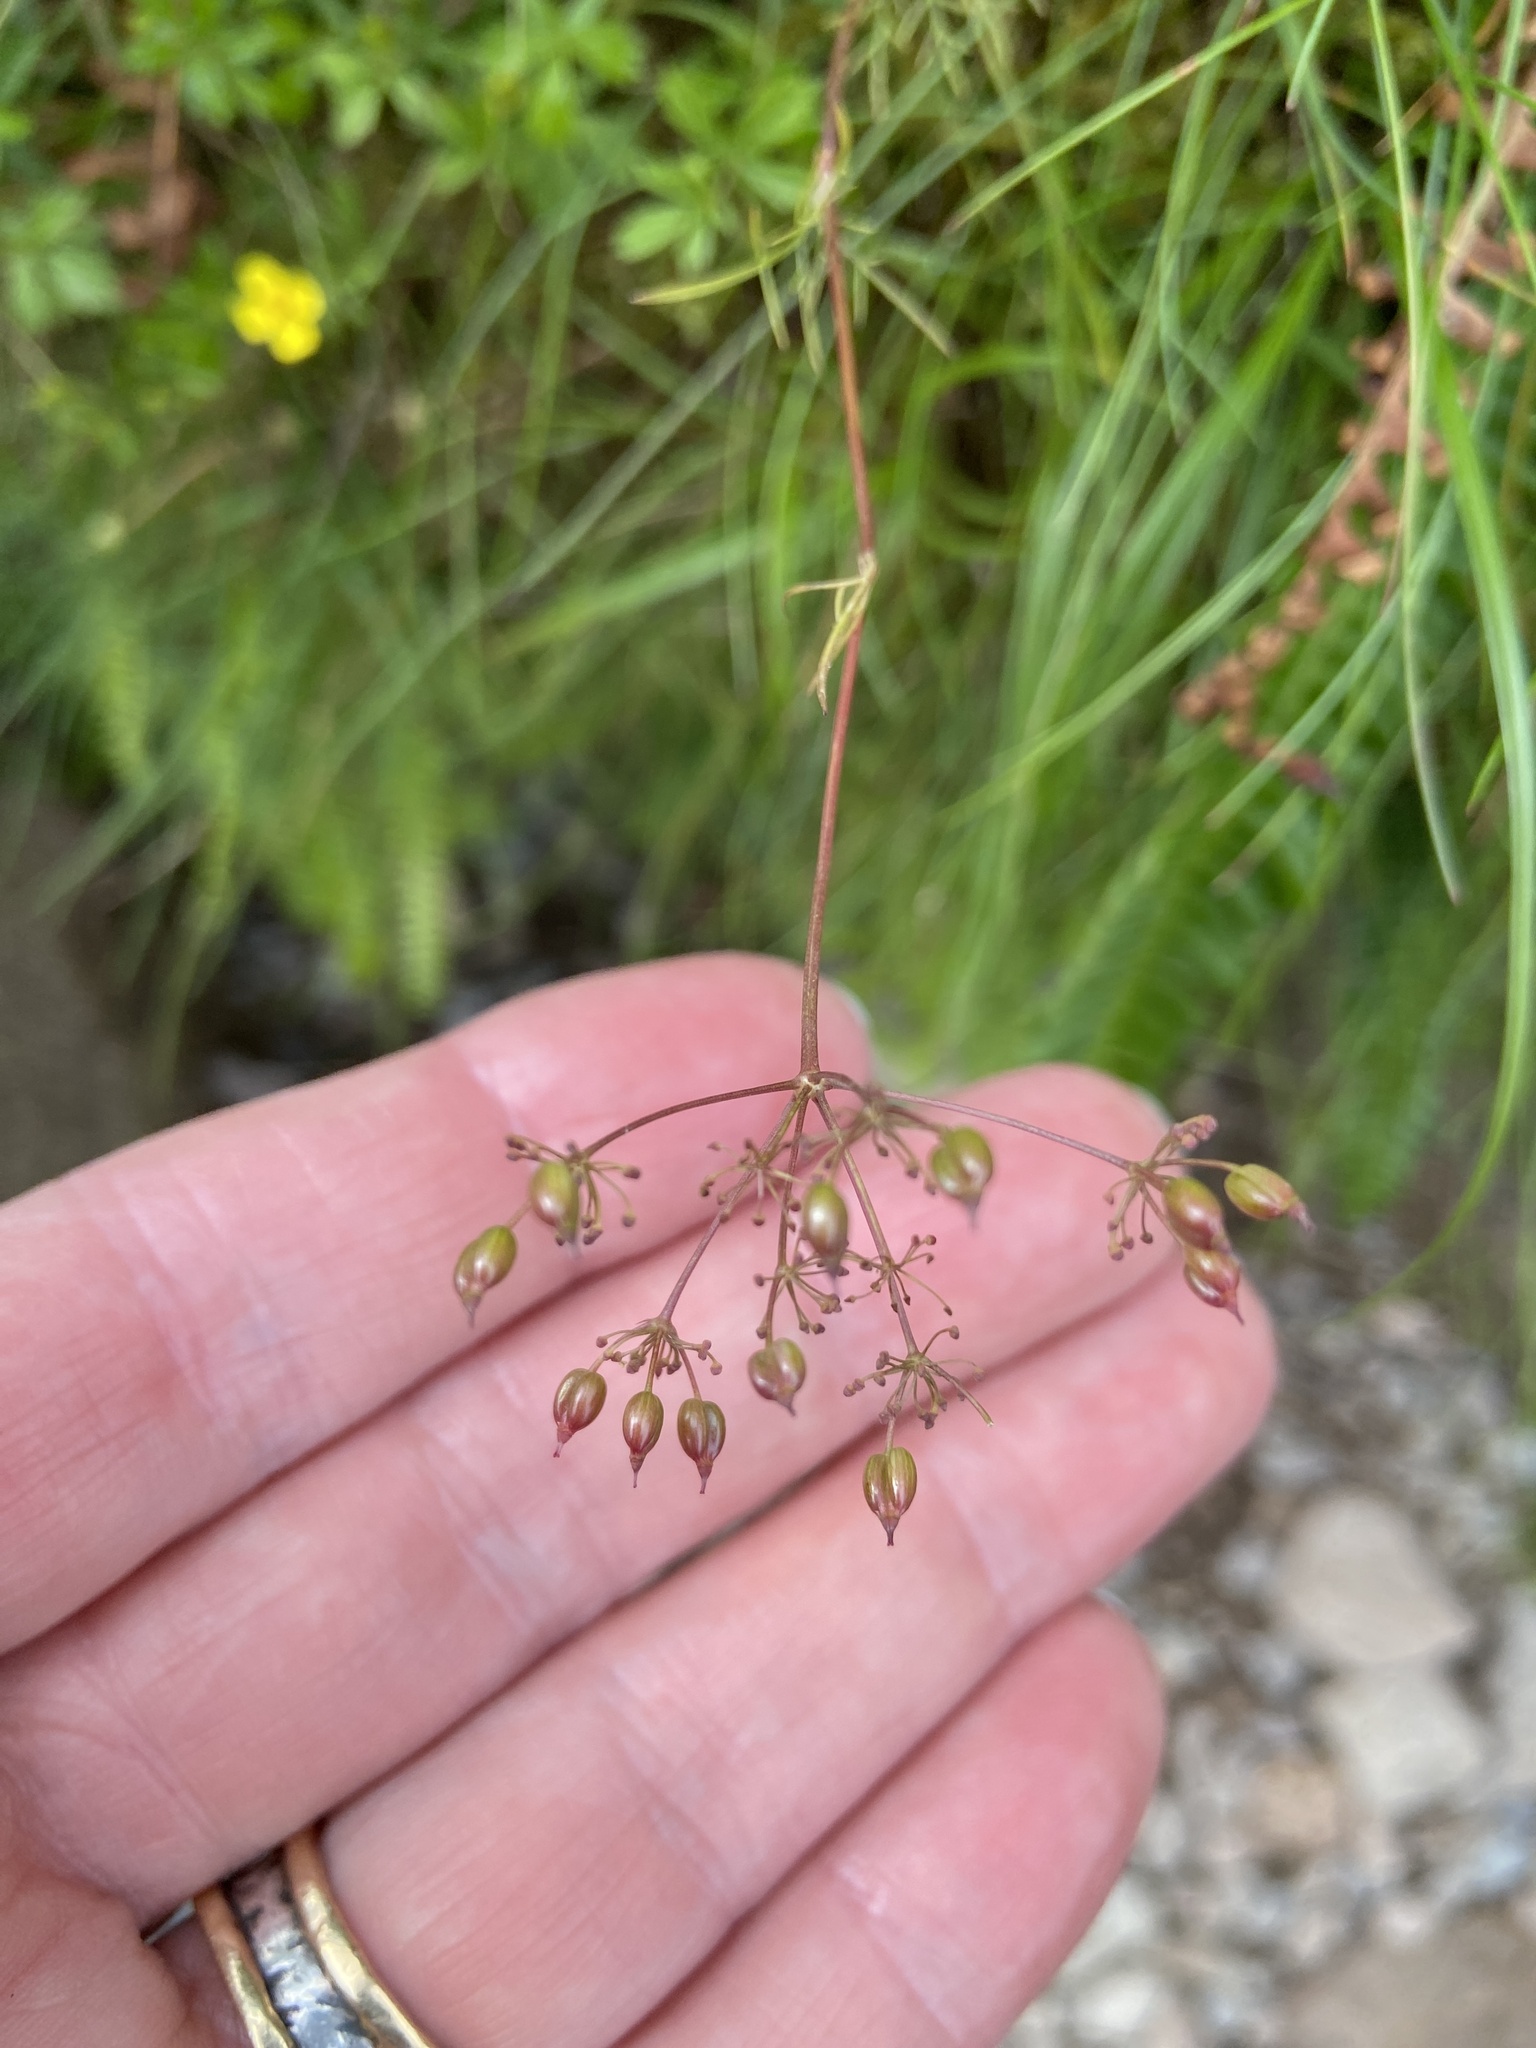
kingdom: Plantae
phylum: Tracheophyta
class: Magnoliopsida
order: Apiales
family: Apiaceae
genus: Conopodium
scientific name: Conopodium majus
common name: Pignut
